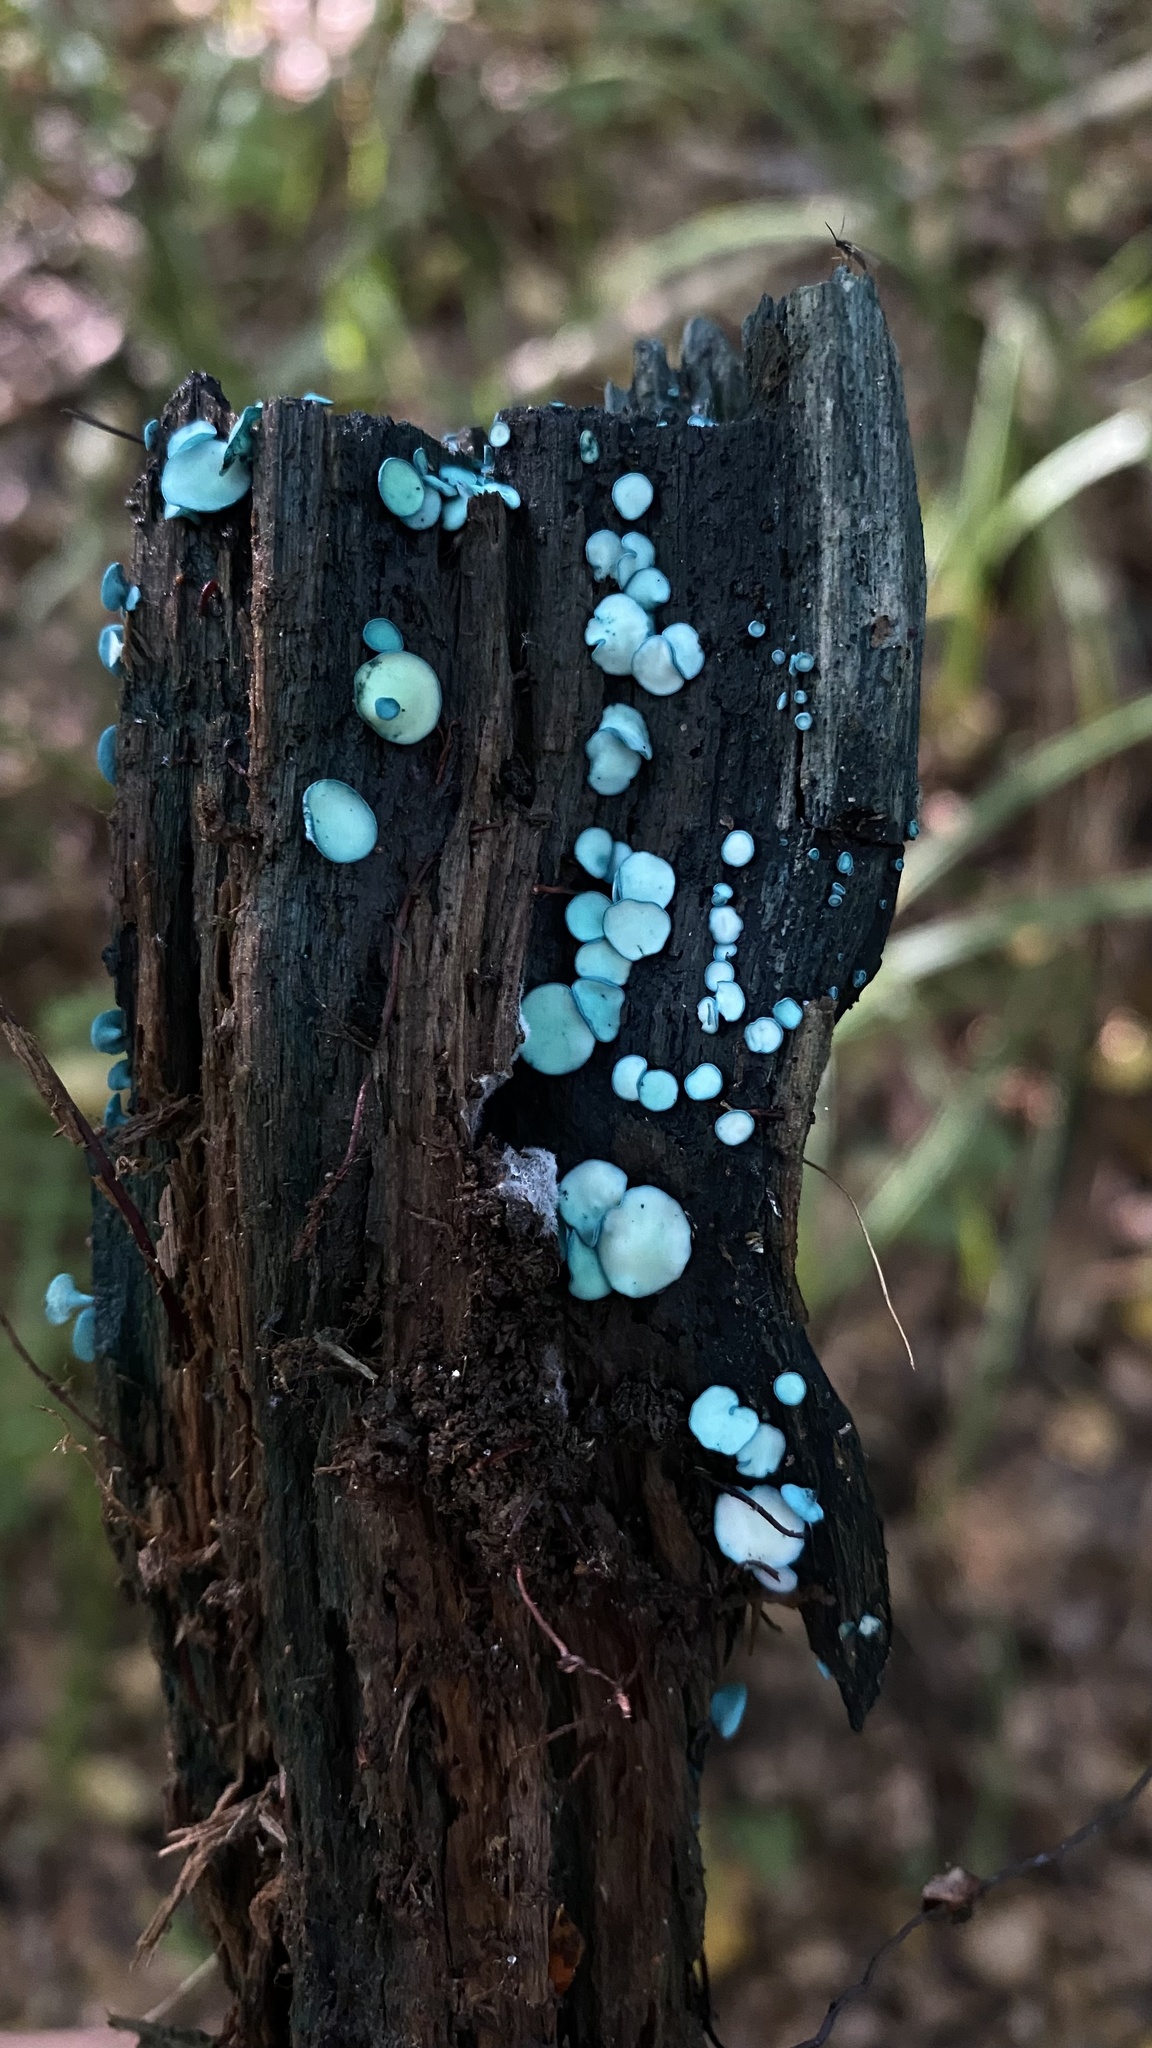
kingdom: Fungi
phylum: Ascomycota
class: Leotiomycetes
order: Helotiales
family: Chlorociboriaceae
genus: Chlorociboria
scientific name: Chlorociboria aeruginosa
